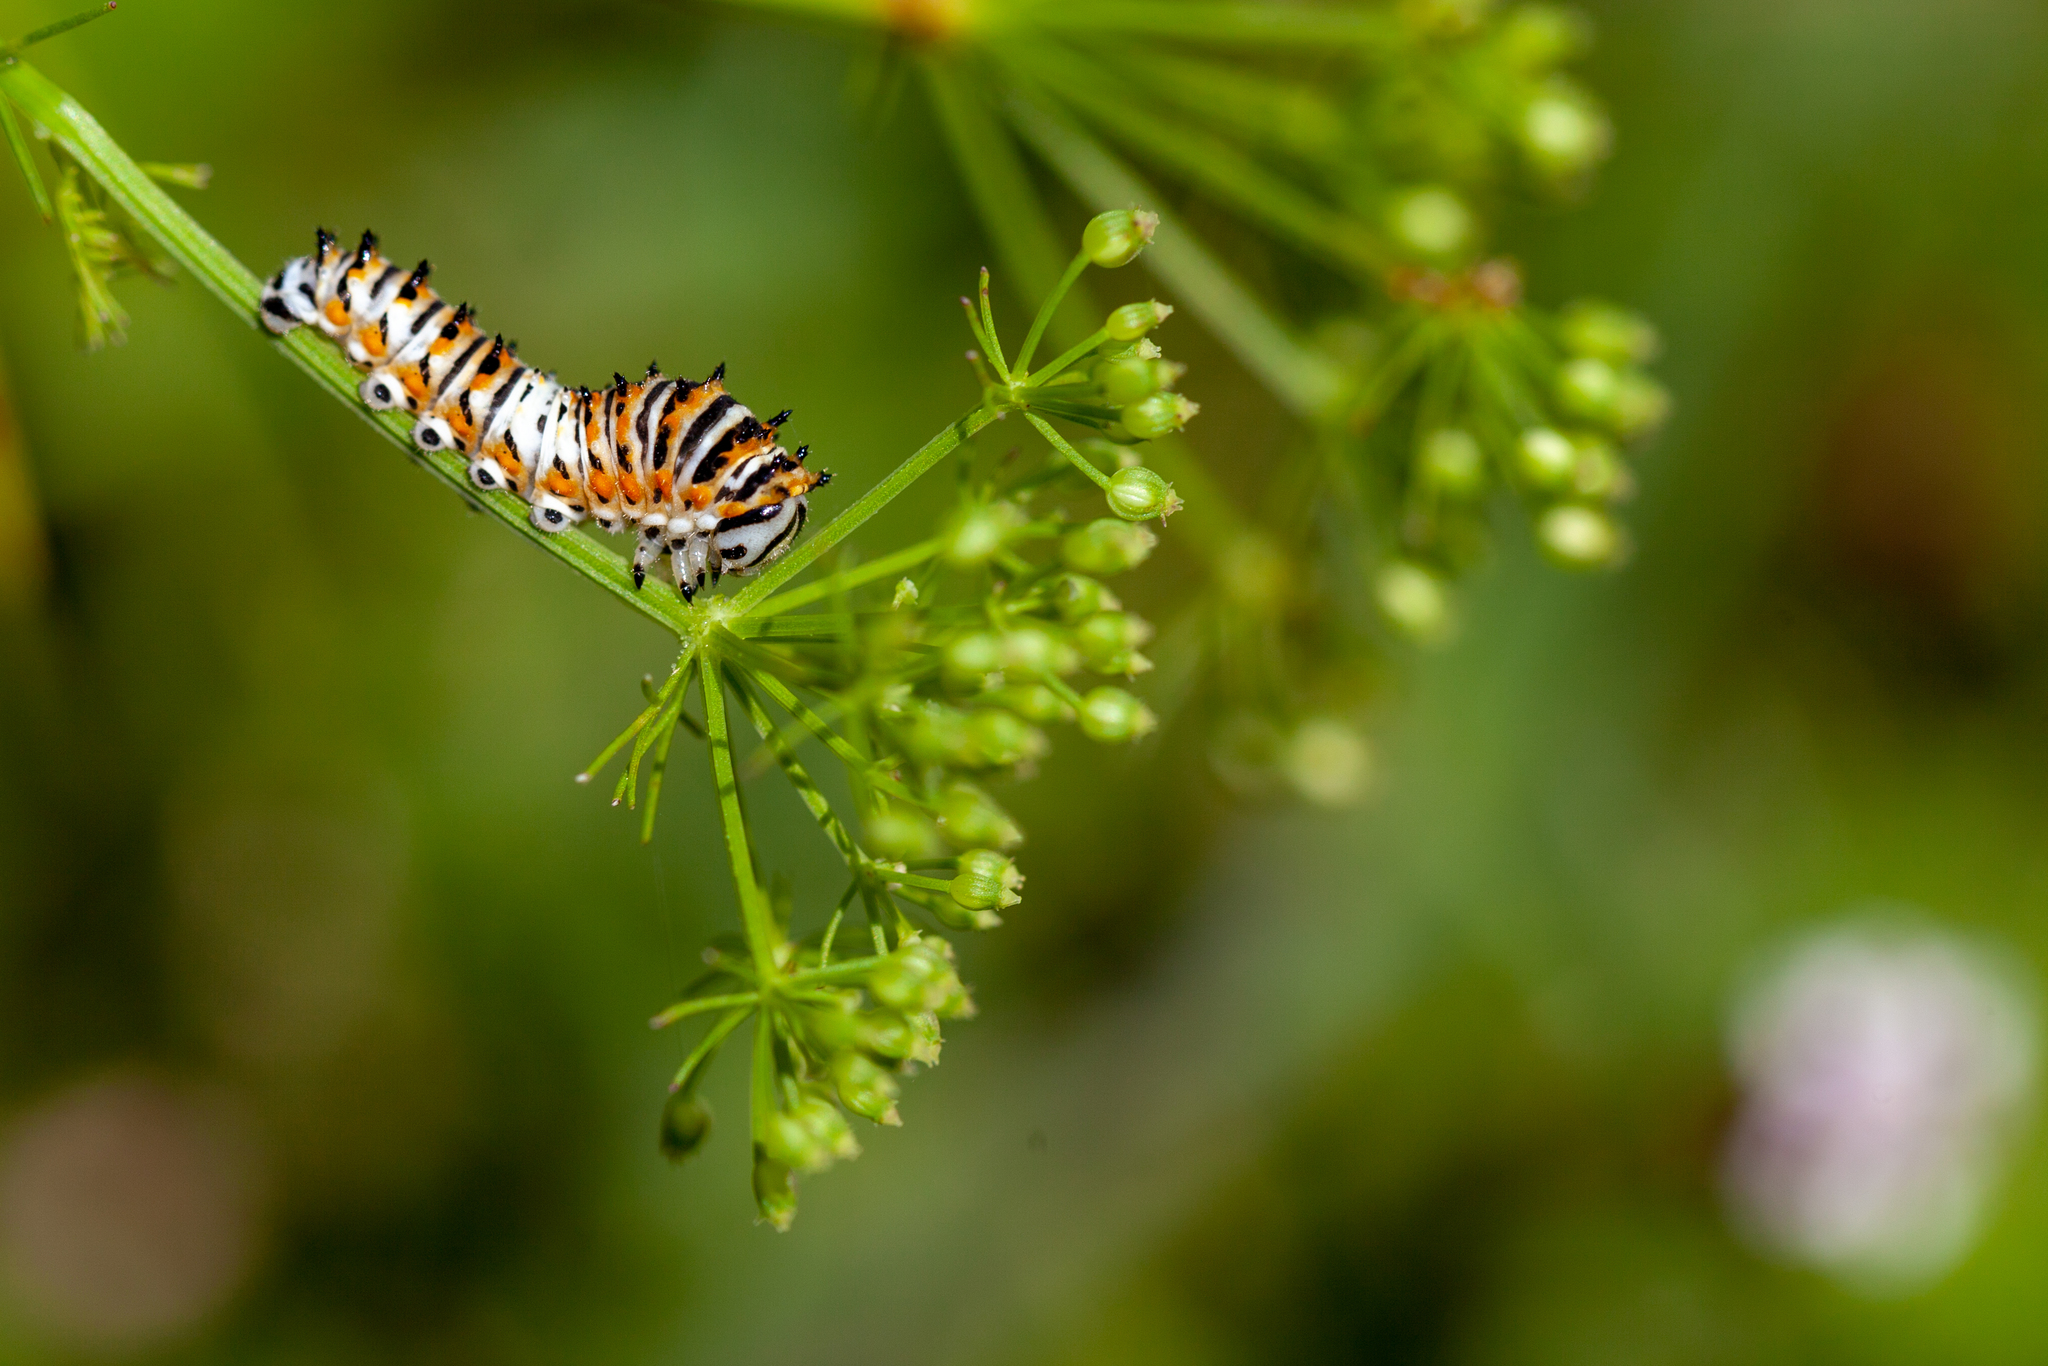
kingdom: Animalia
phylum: Arthropoda
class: Insecta
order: Lepidoptera
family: Papilionidae
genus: Papilio
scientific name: Papilio polyxenes
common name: Black swallowtail
